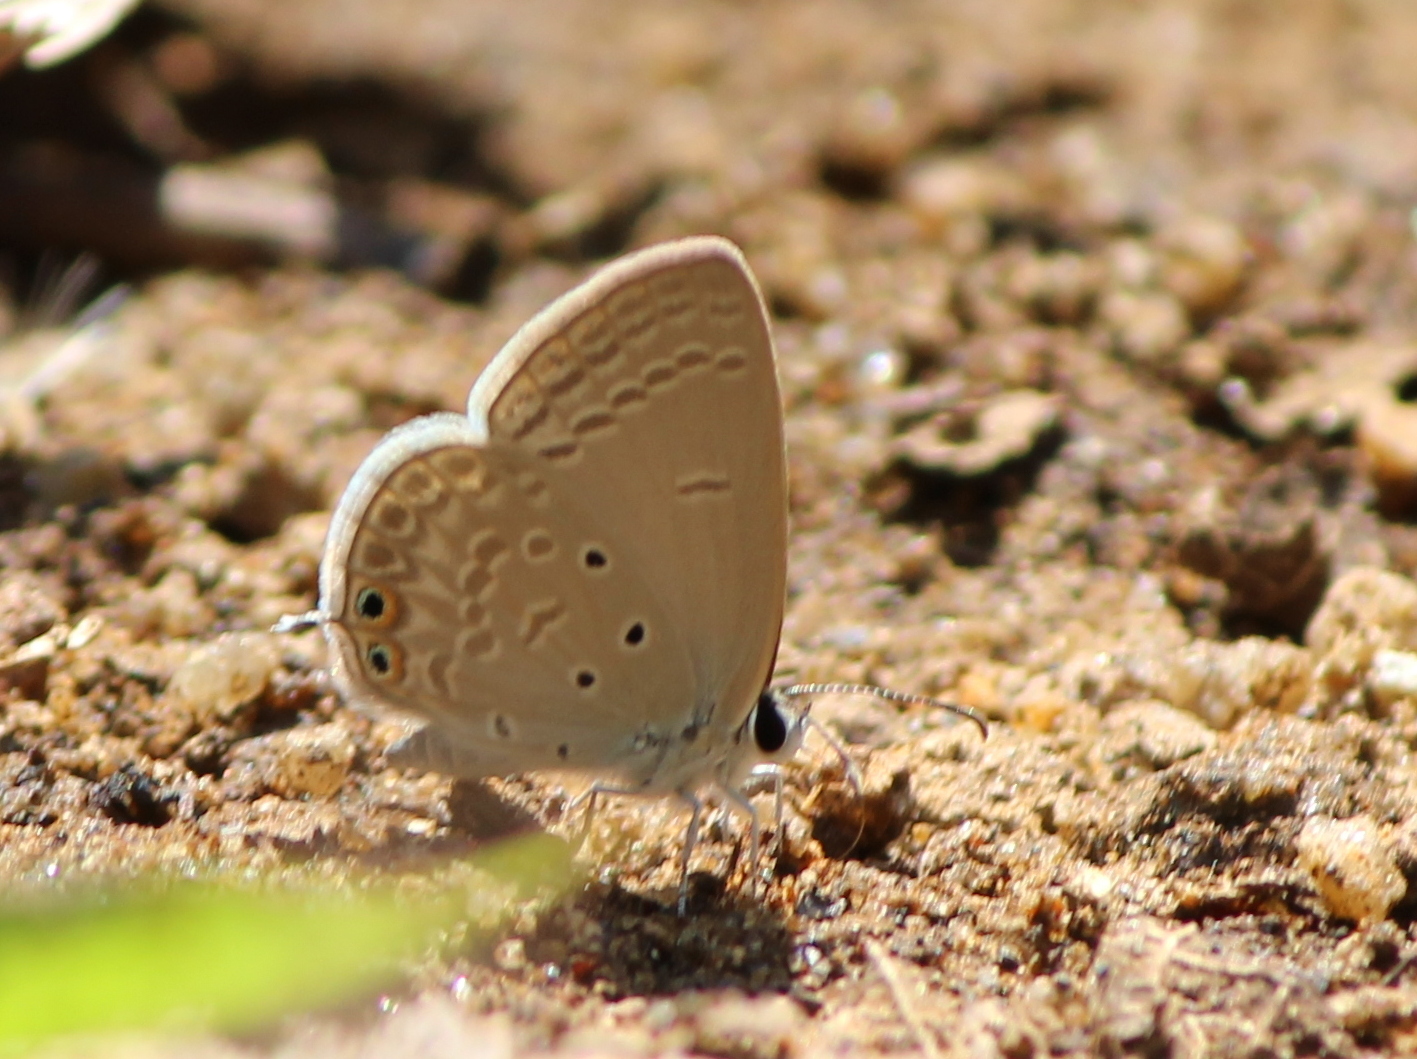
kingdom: Animalia
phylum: Arthropoda
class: Insecta
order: Lepidoptera
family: Lycaenidae
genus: Euchrysops
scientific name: Euchrysops cnejus
